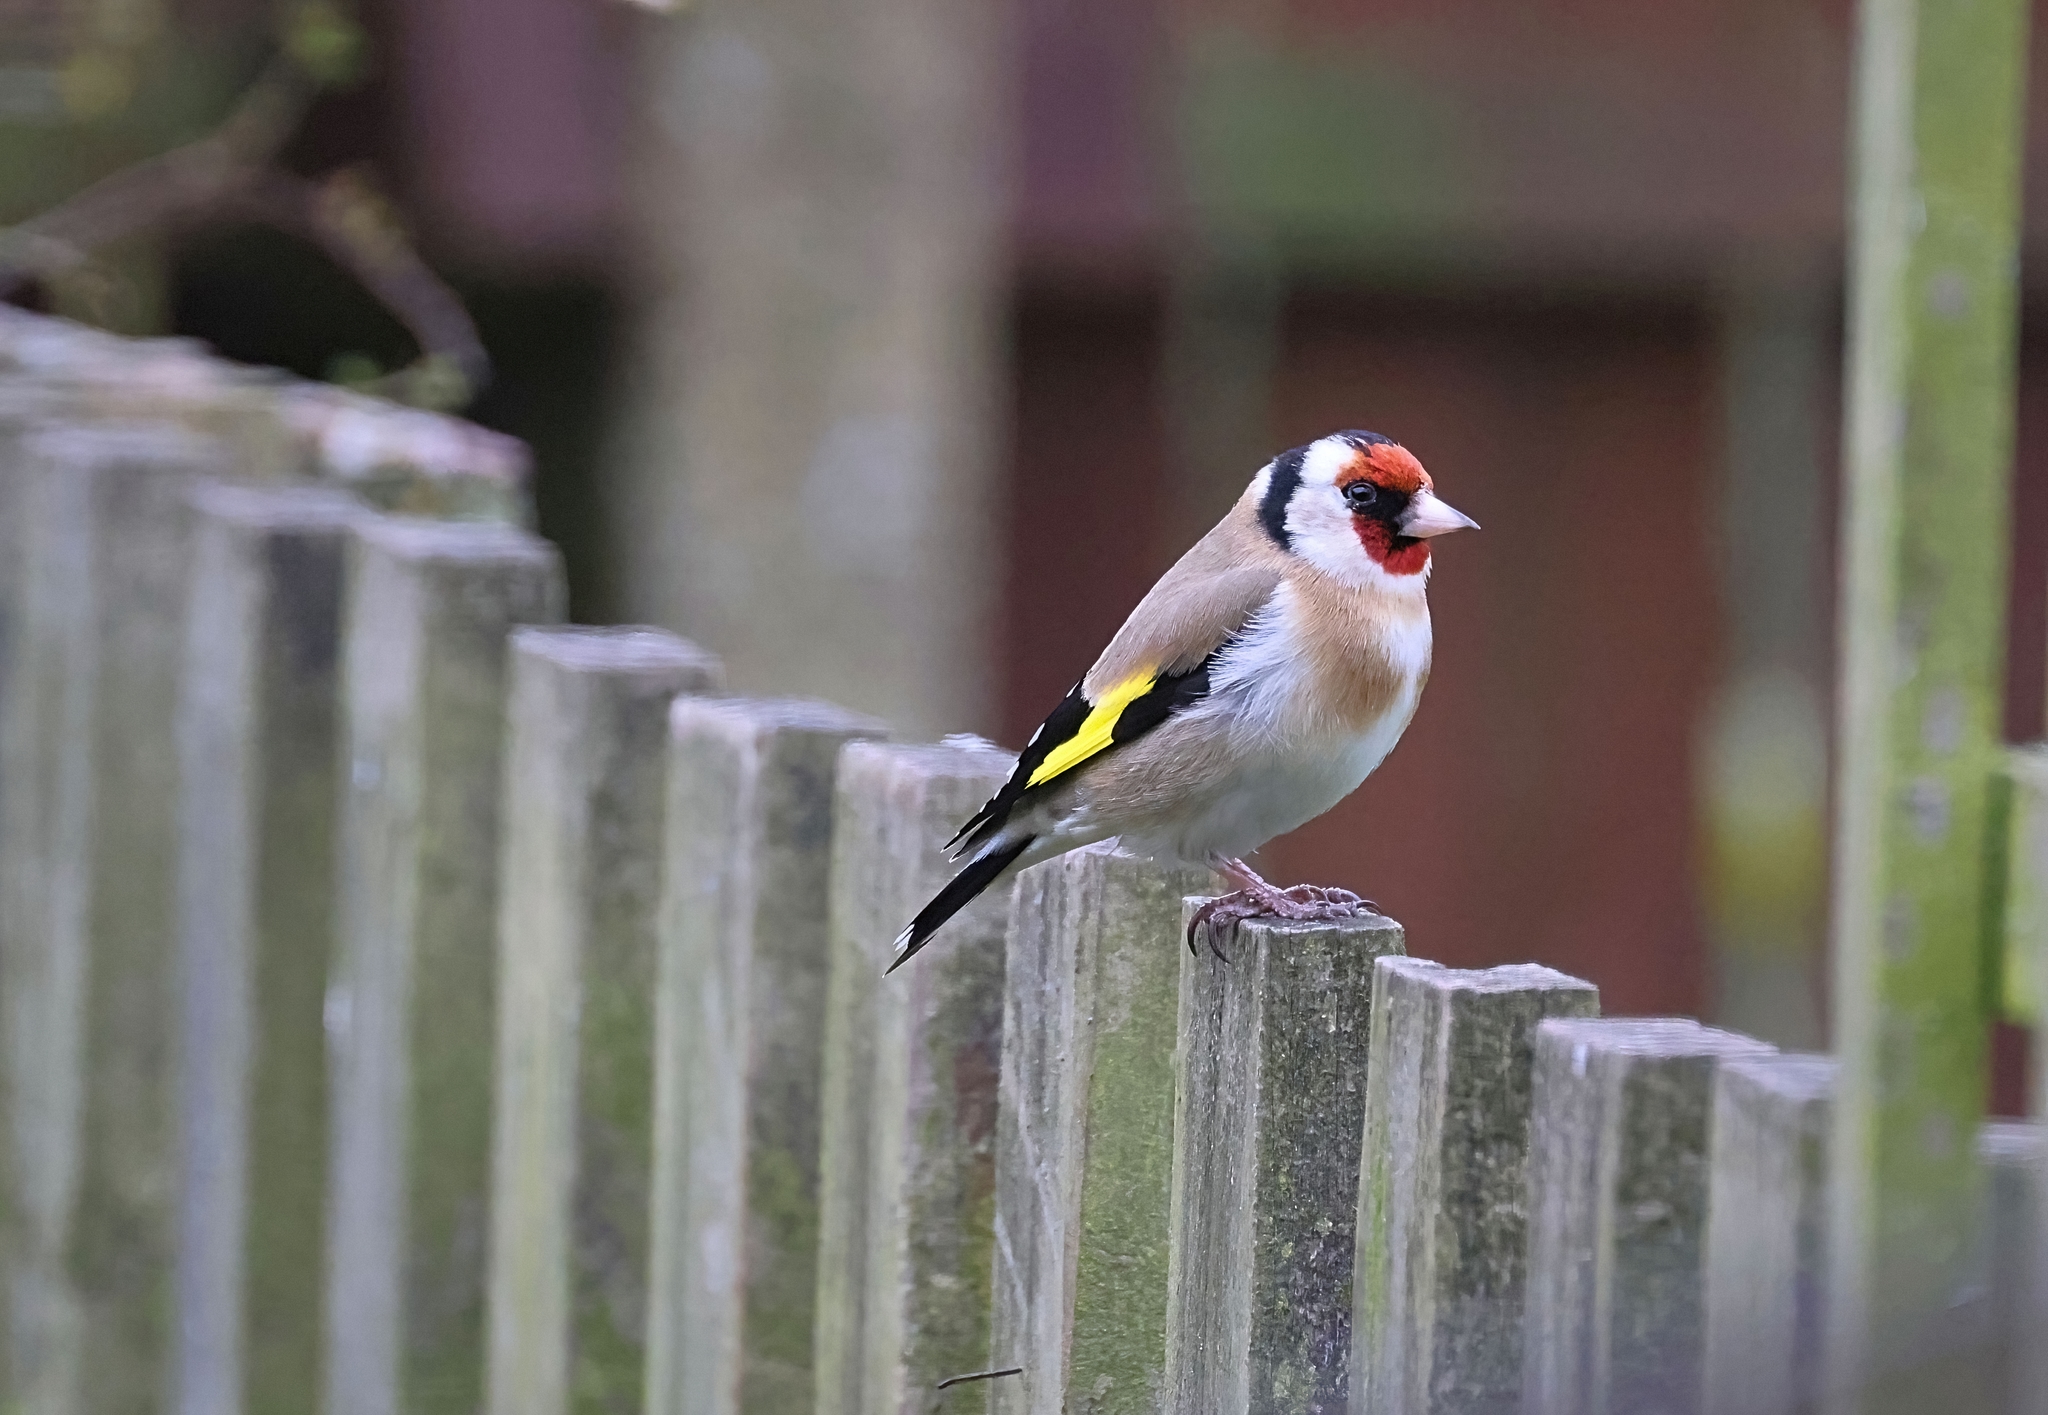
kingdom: Animalia
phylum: Chordata
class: Aves
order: Passeriformes
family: Fringillidae
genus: Carduelis
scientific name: Carduelis carduelis
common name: European goldfinch
